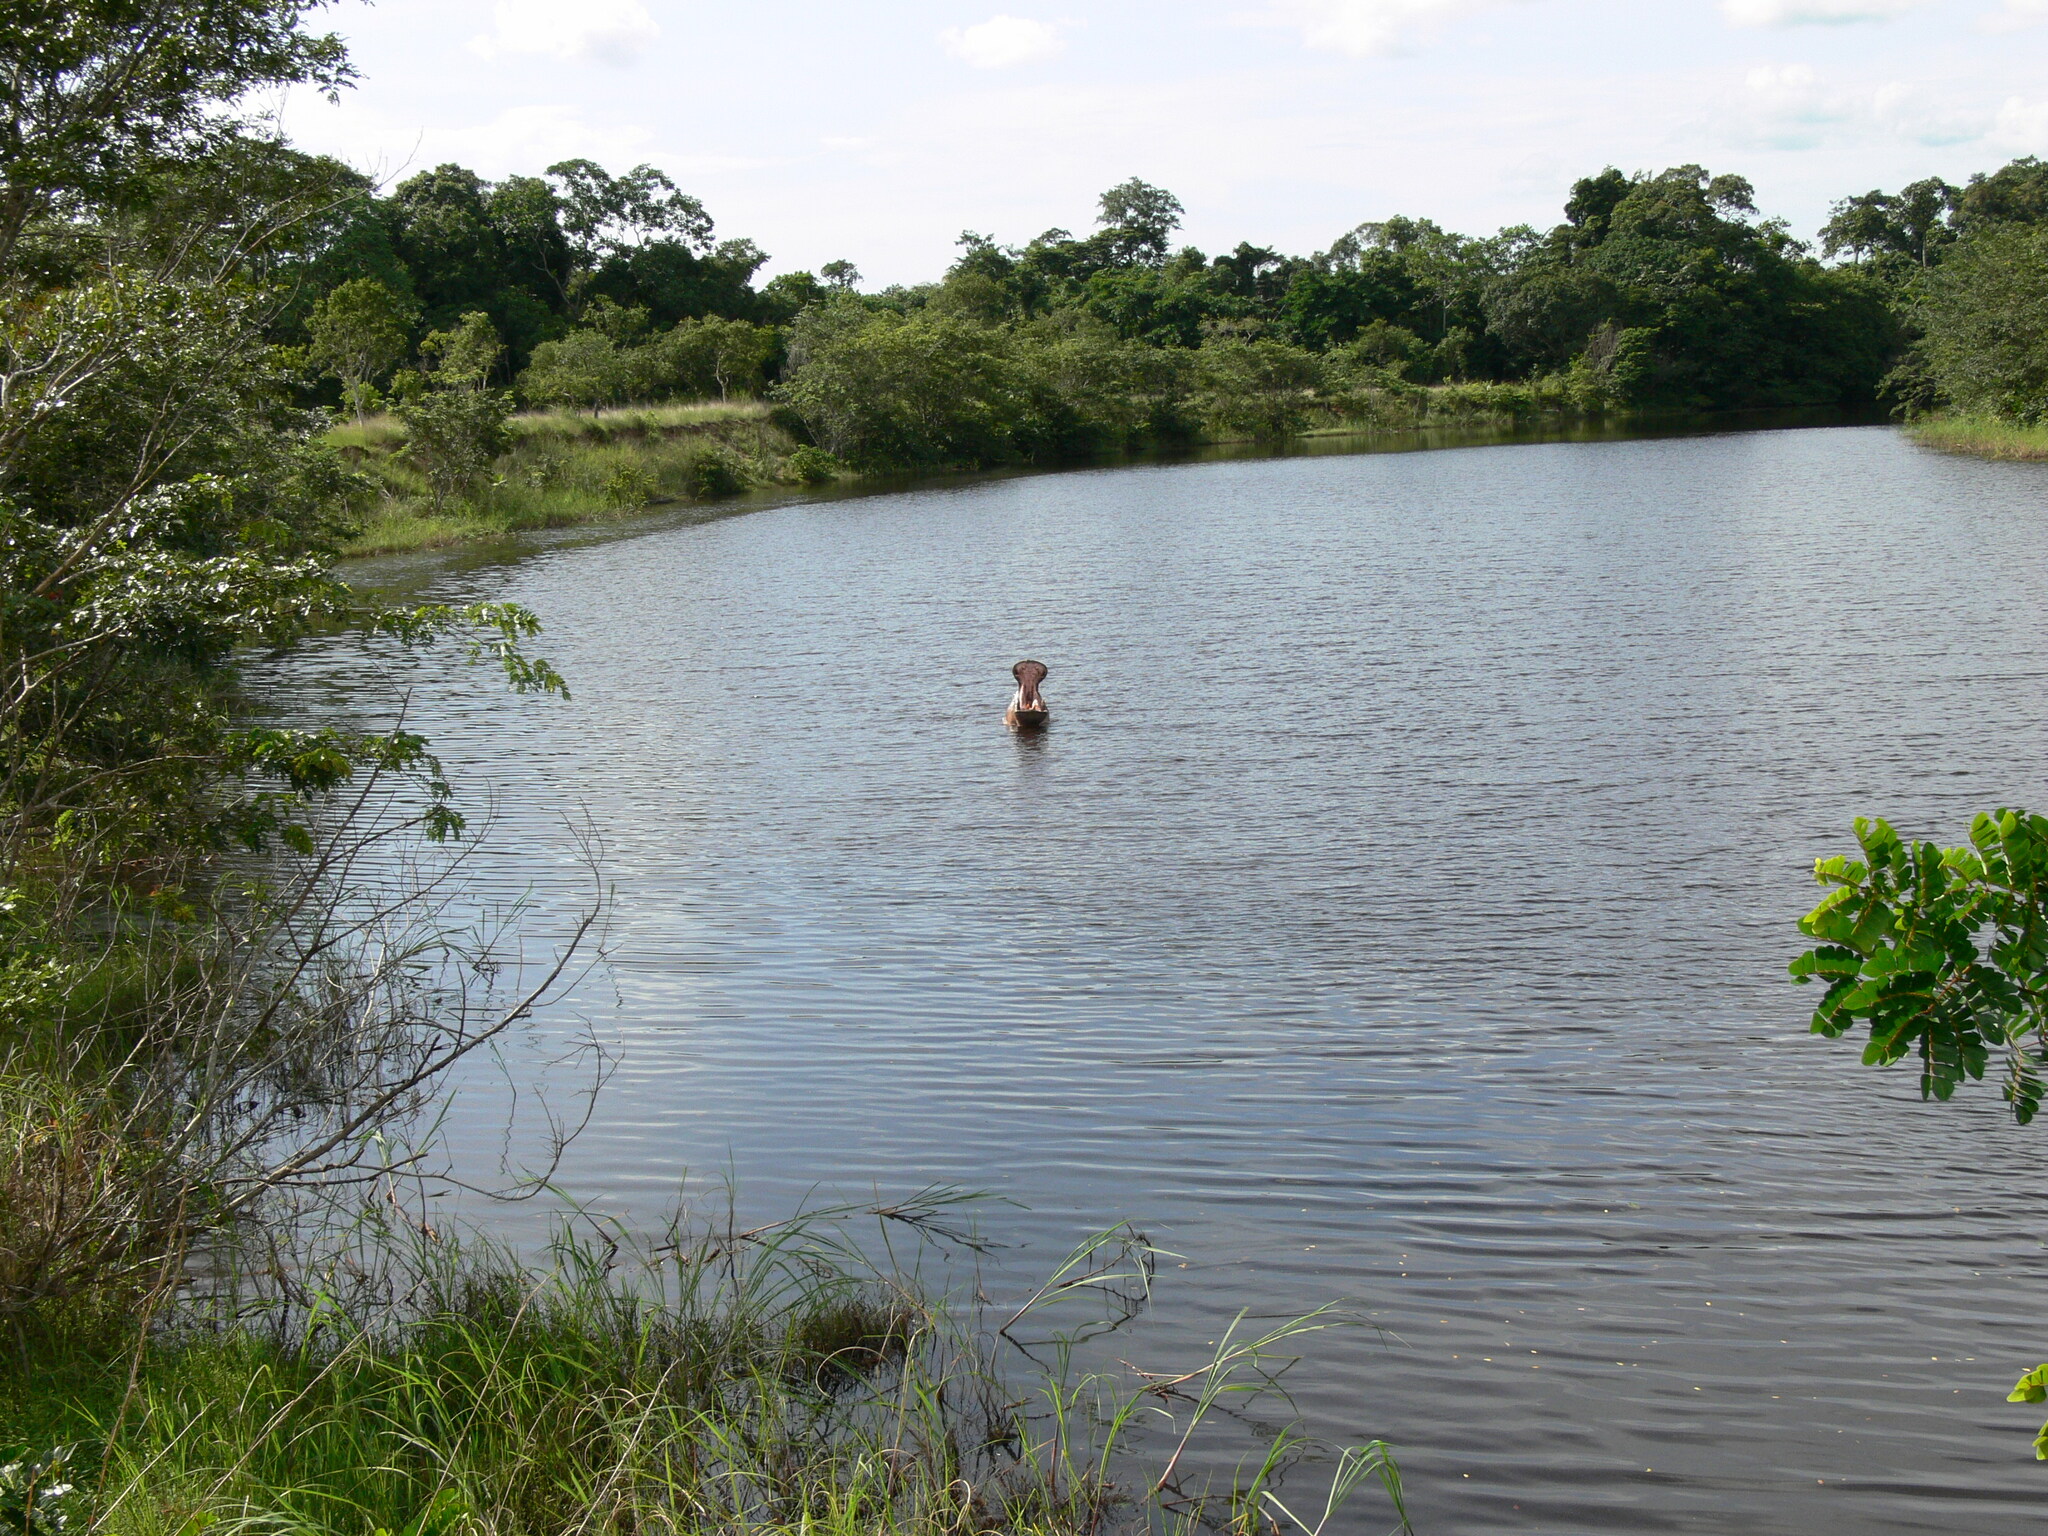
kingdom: Animalia
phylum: Chordata
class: Mammalia
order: Artiodactyla
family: Hippopotamidae
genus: Hippopotamus
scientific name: Hippopotamus amphibius
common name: Common hippopotamus
